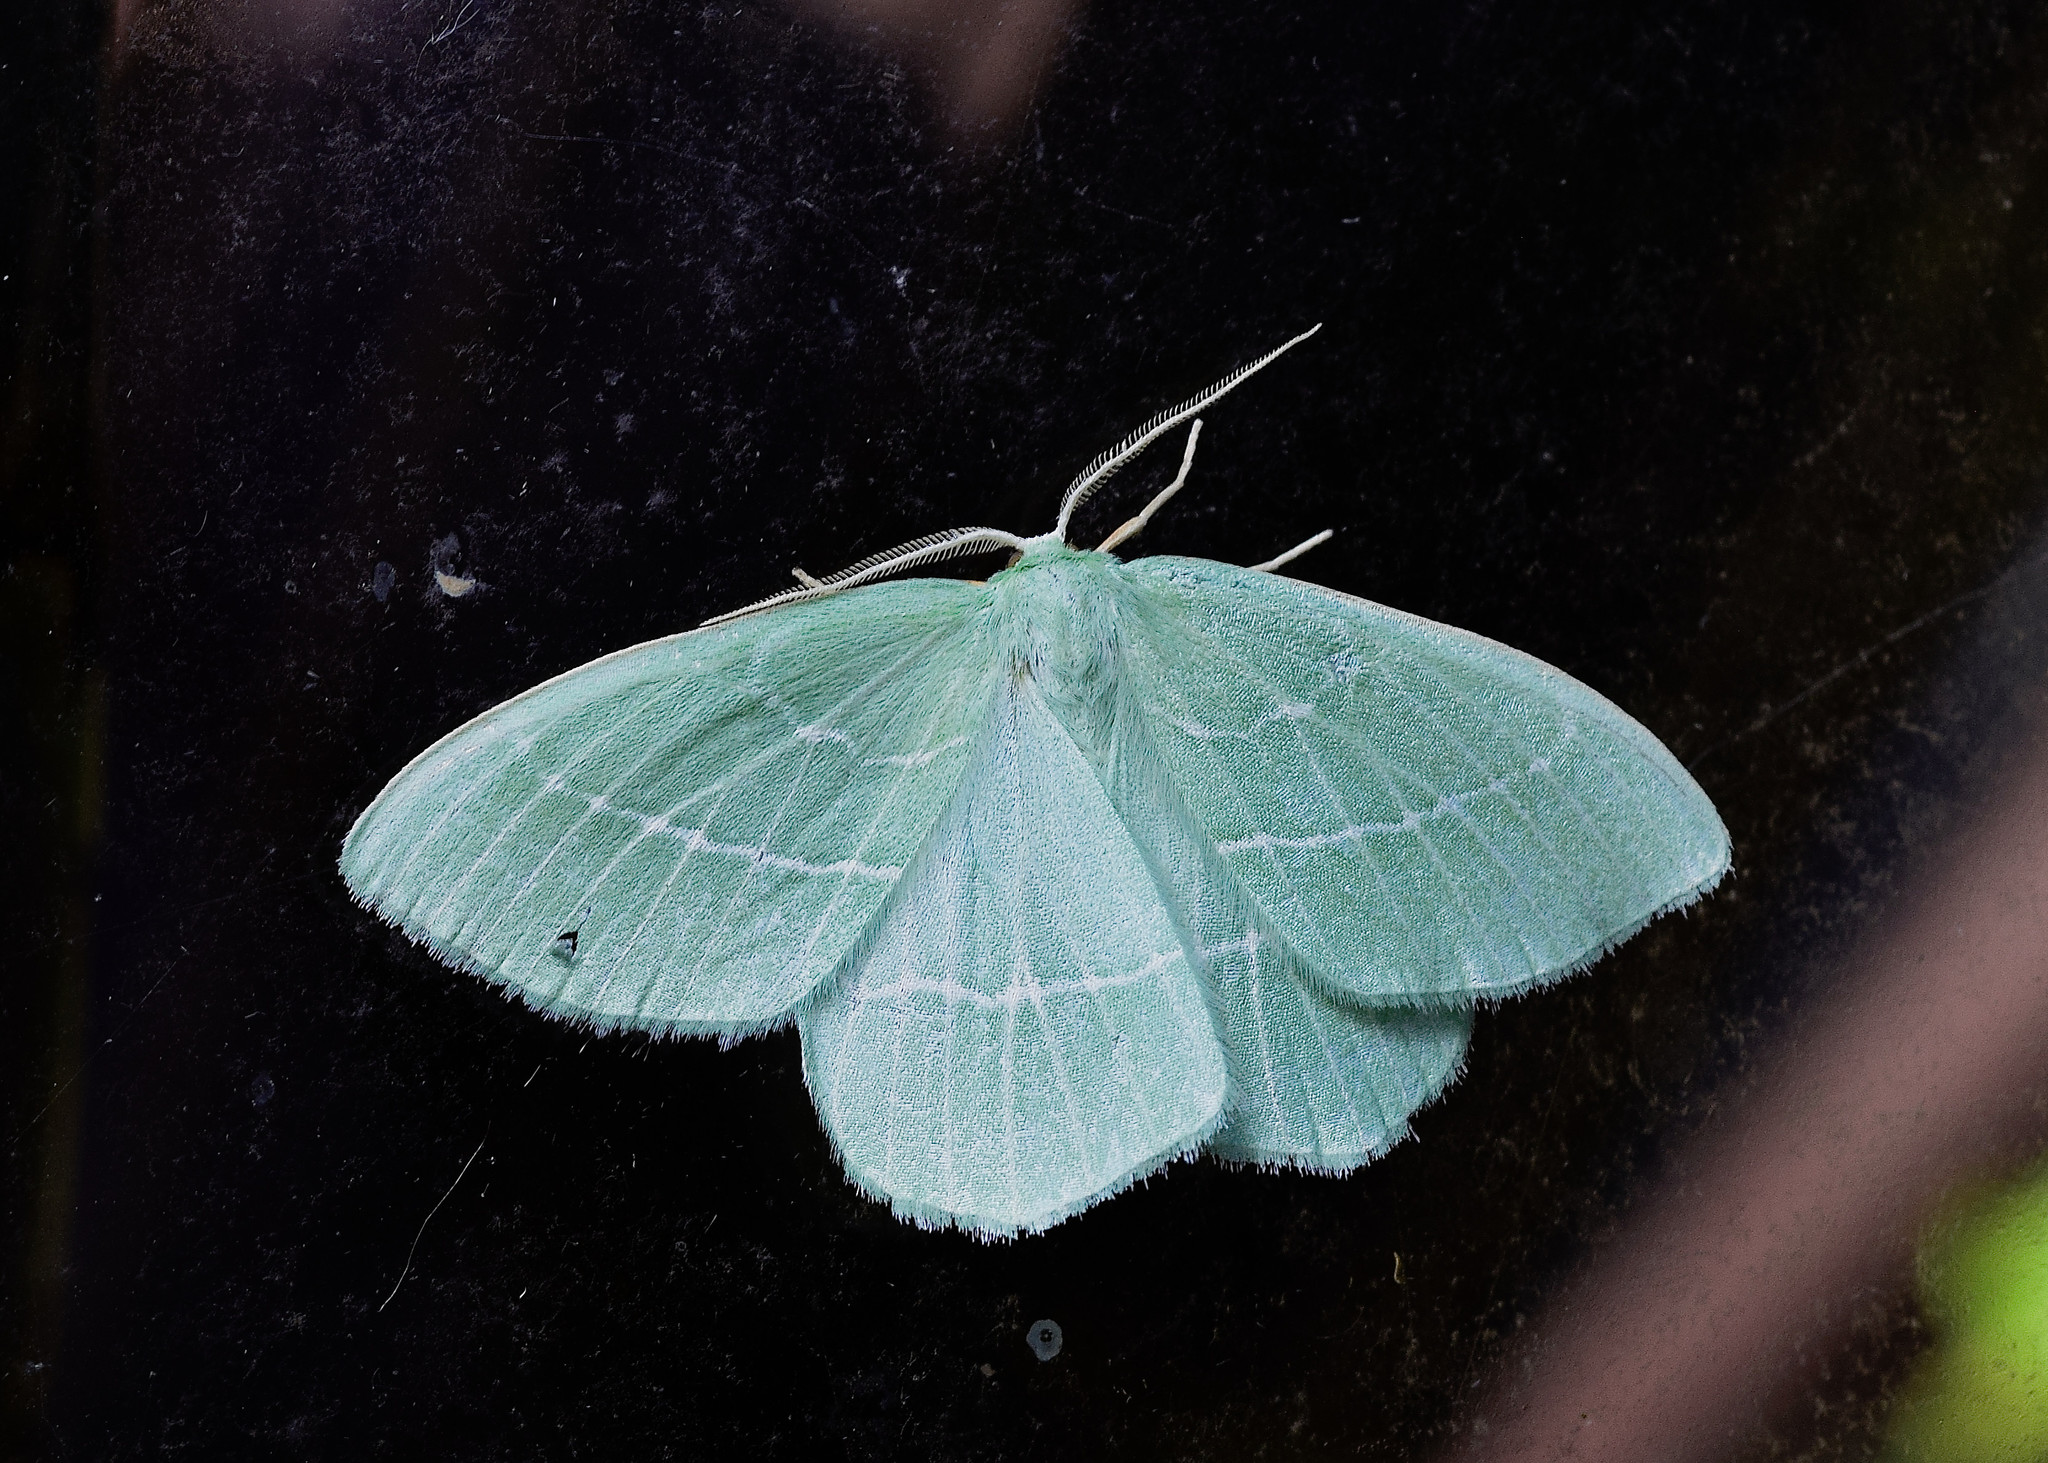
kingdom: Animalia
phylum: Arthropoda
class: Insecta
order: Lepidoptera
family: Geometridae
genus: Hemistola
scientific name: Hemistola chrysoprasaria
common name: Small emerald
